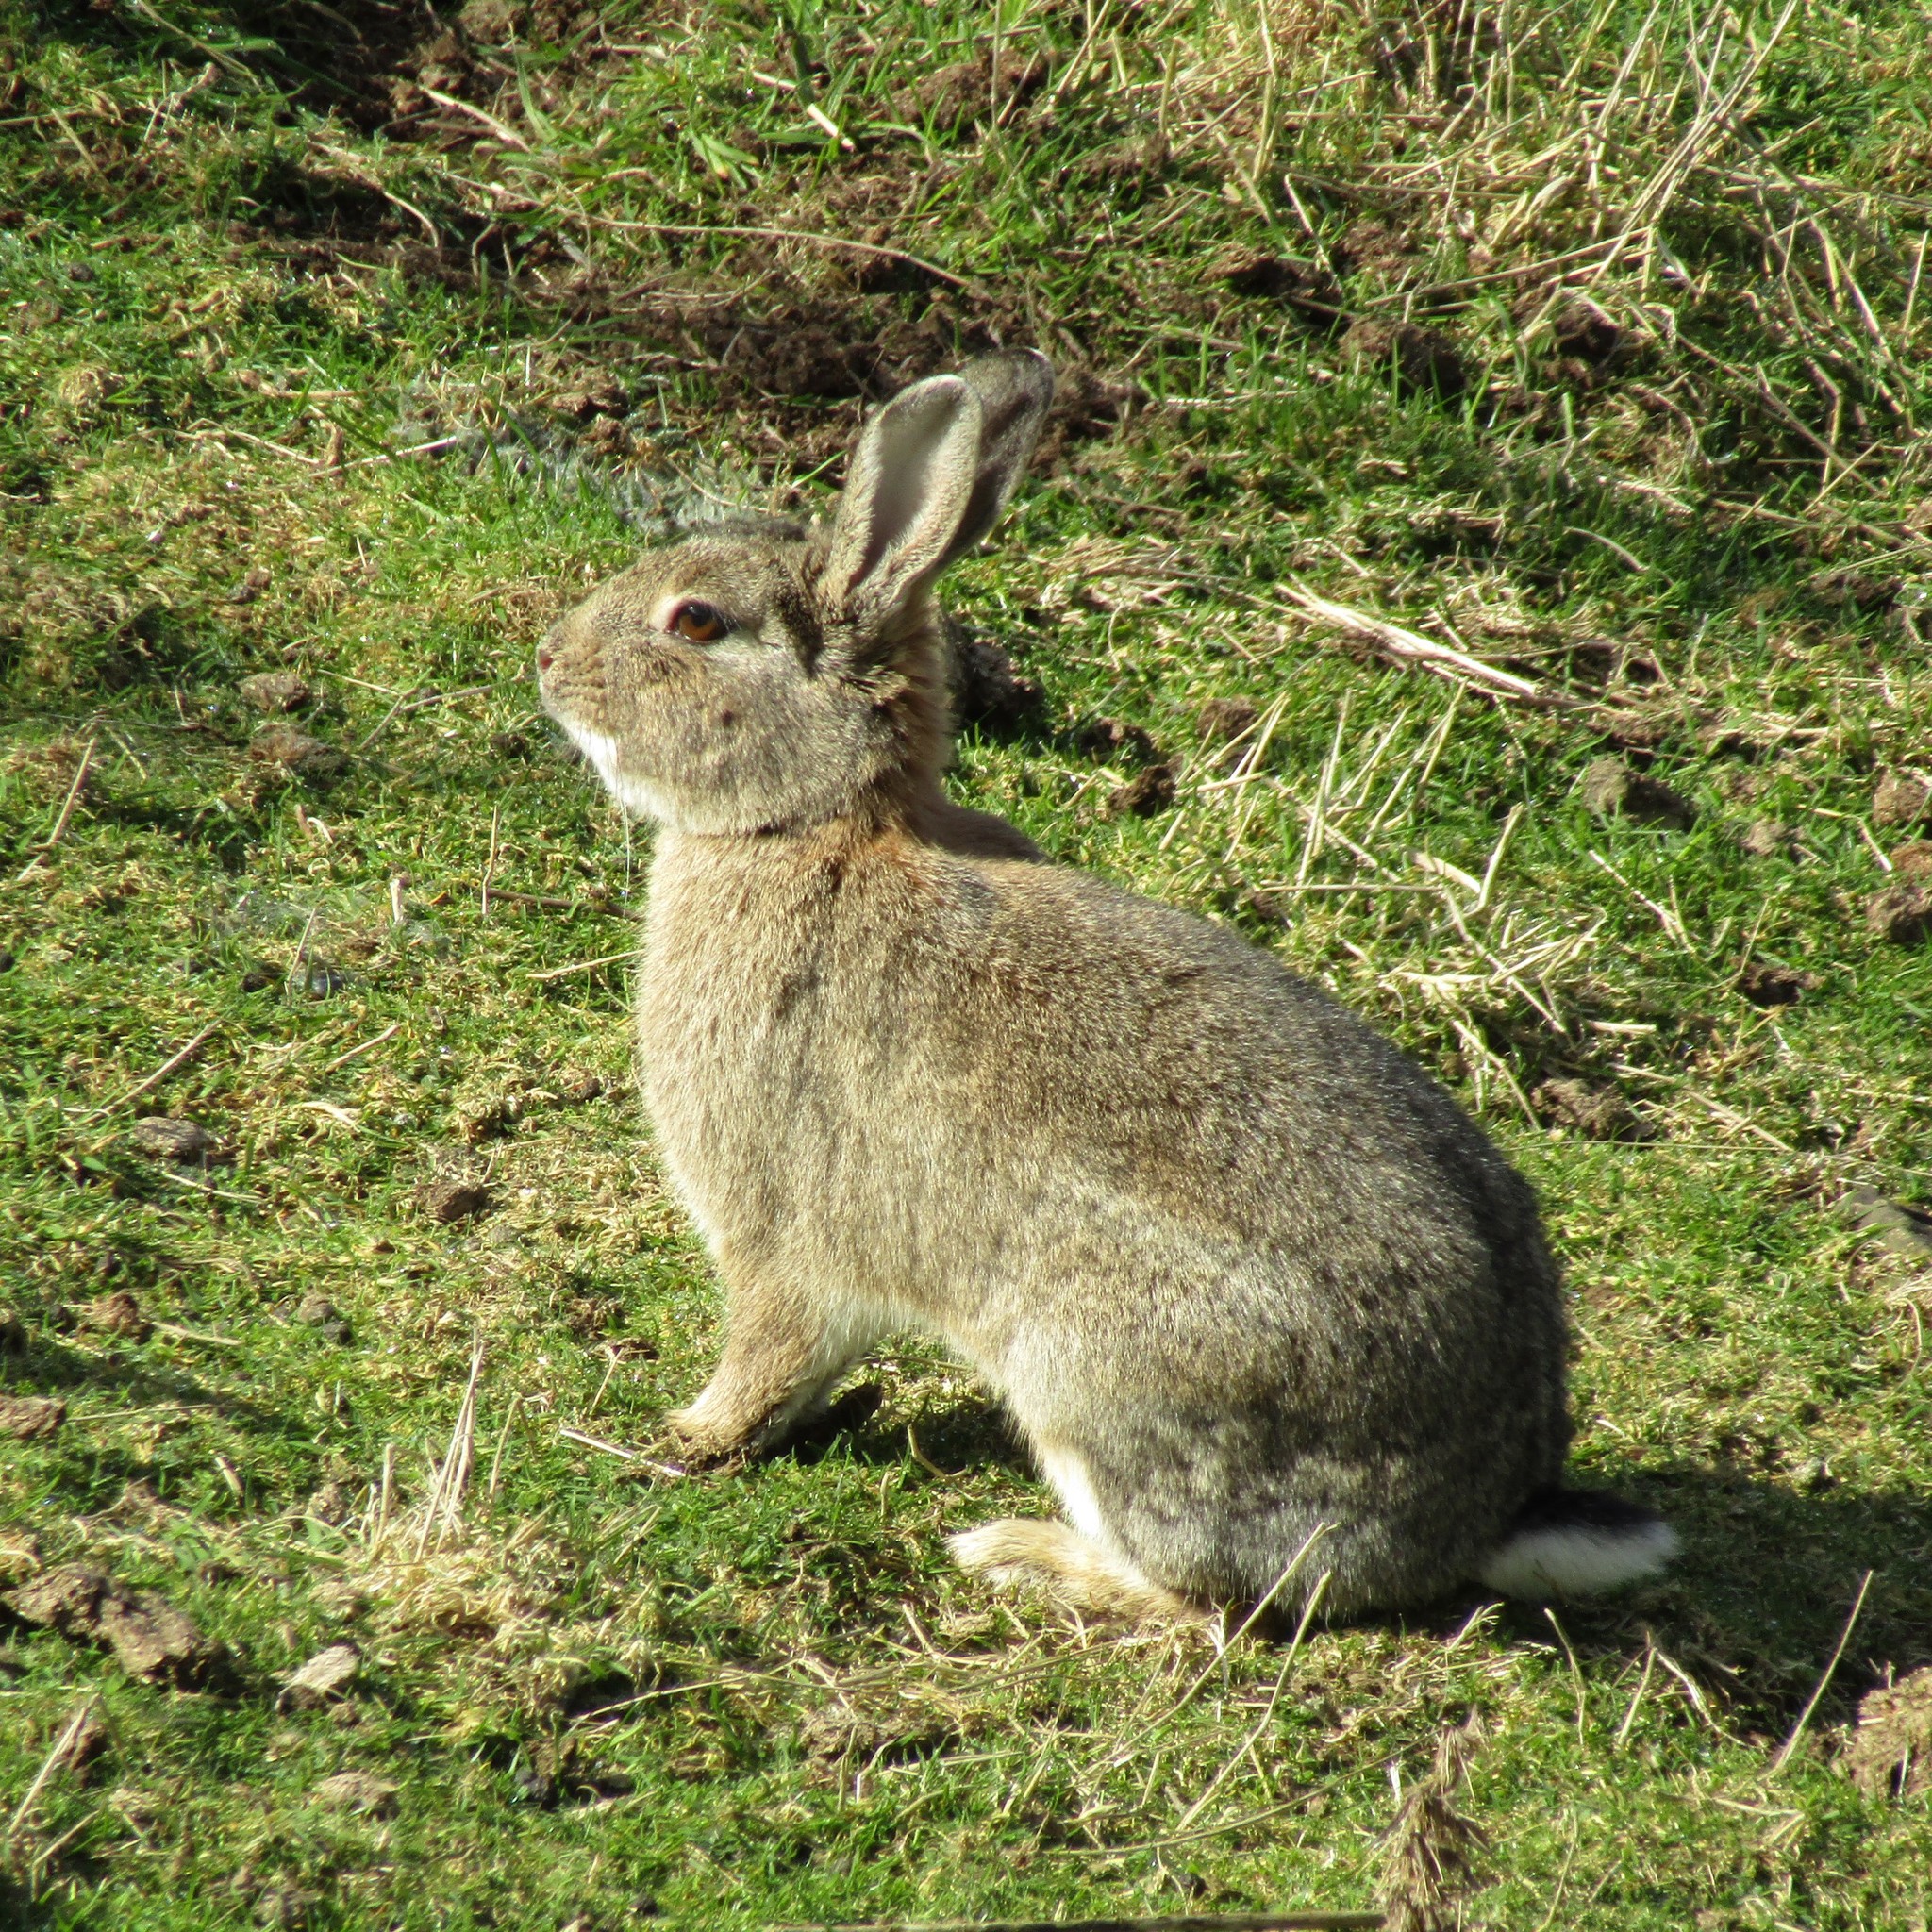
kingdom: Animalia
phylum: Chordata
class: Mammalia
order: Lagomorpha
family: Leporidae
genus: Oryctolagus
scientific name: Oryctolagus cuniculus
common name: European rabbit
